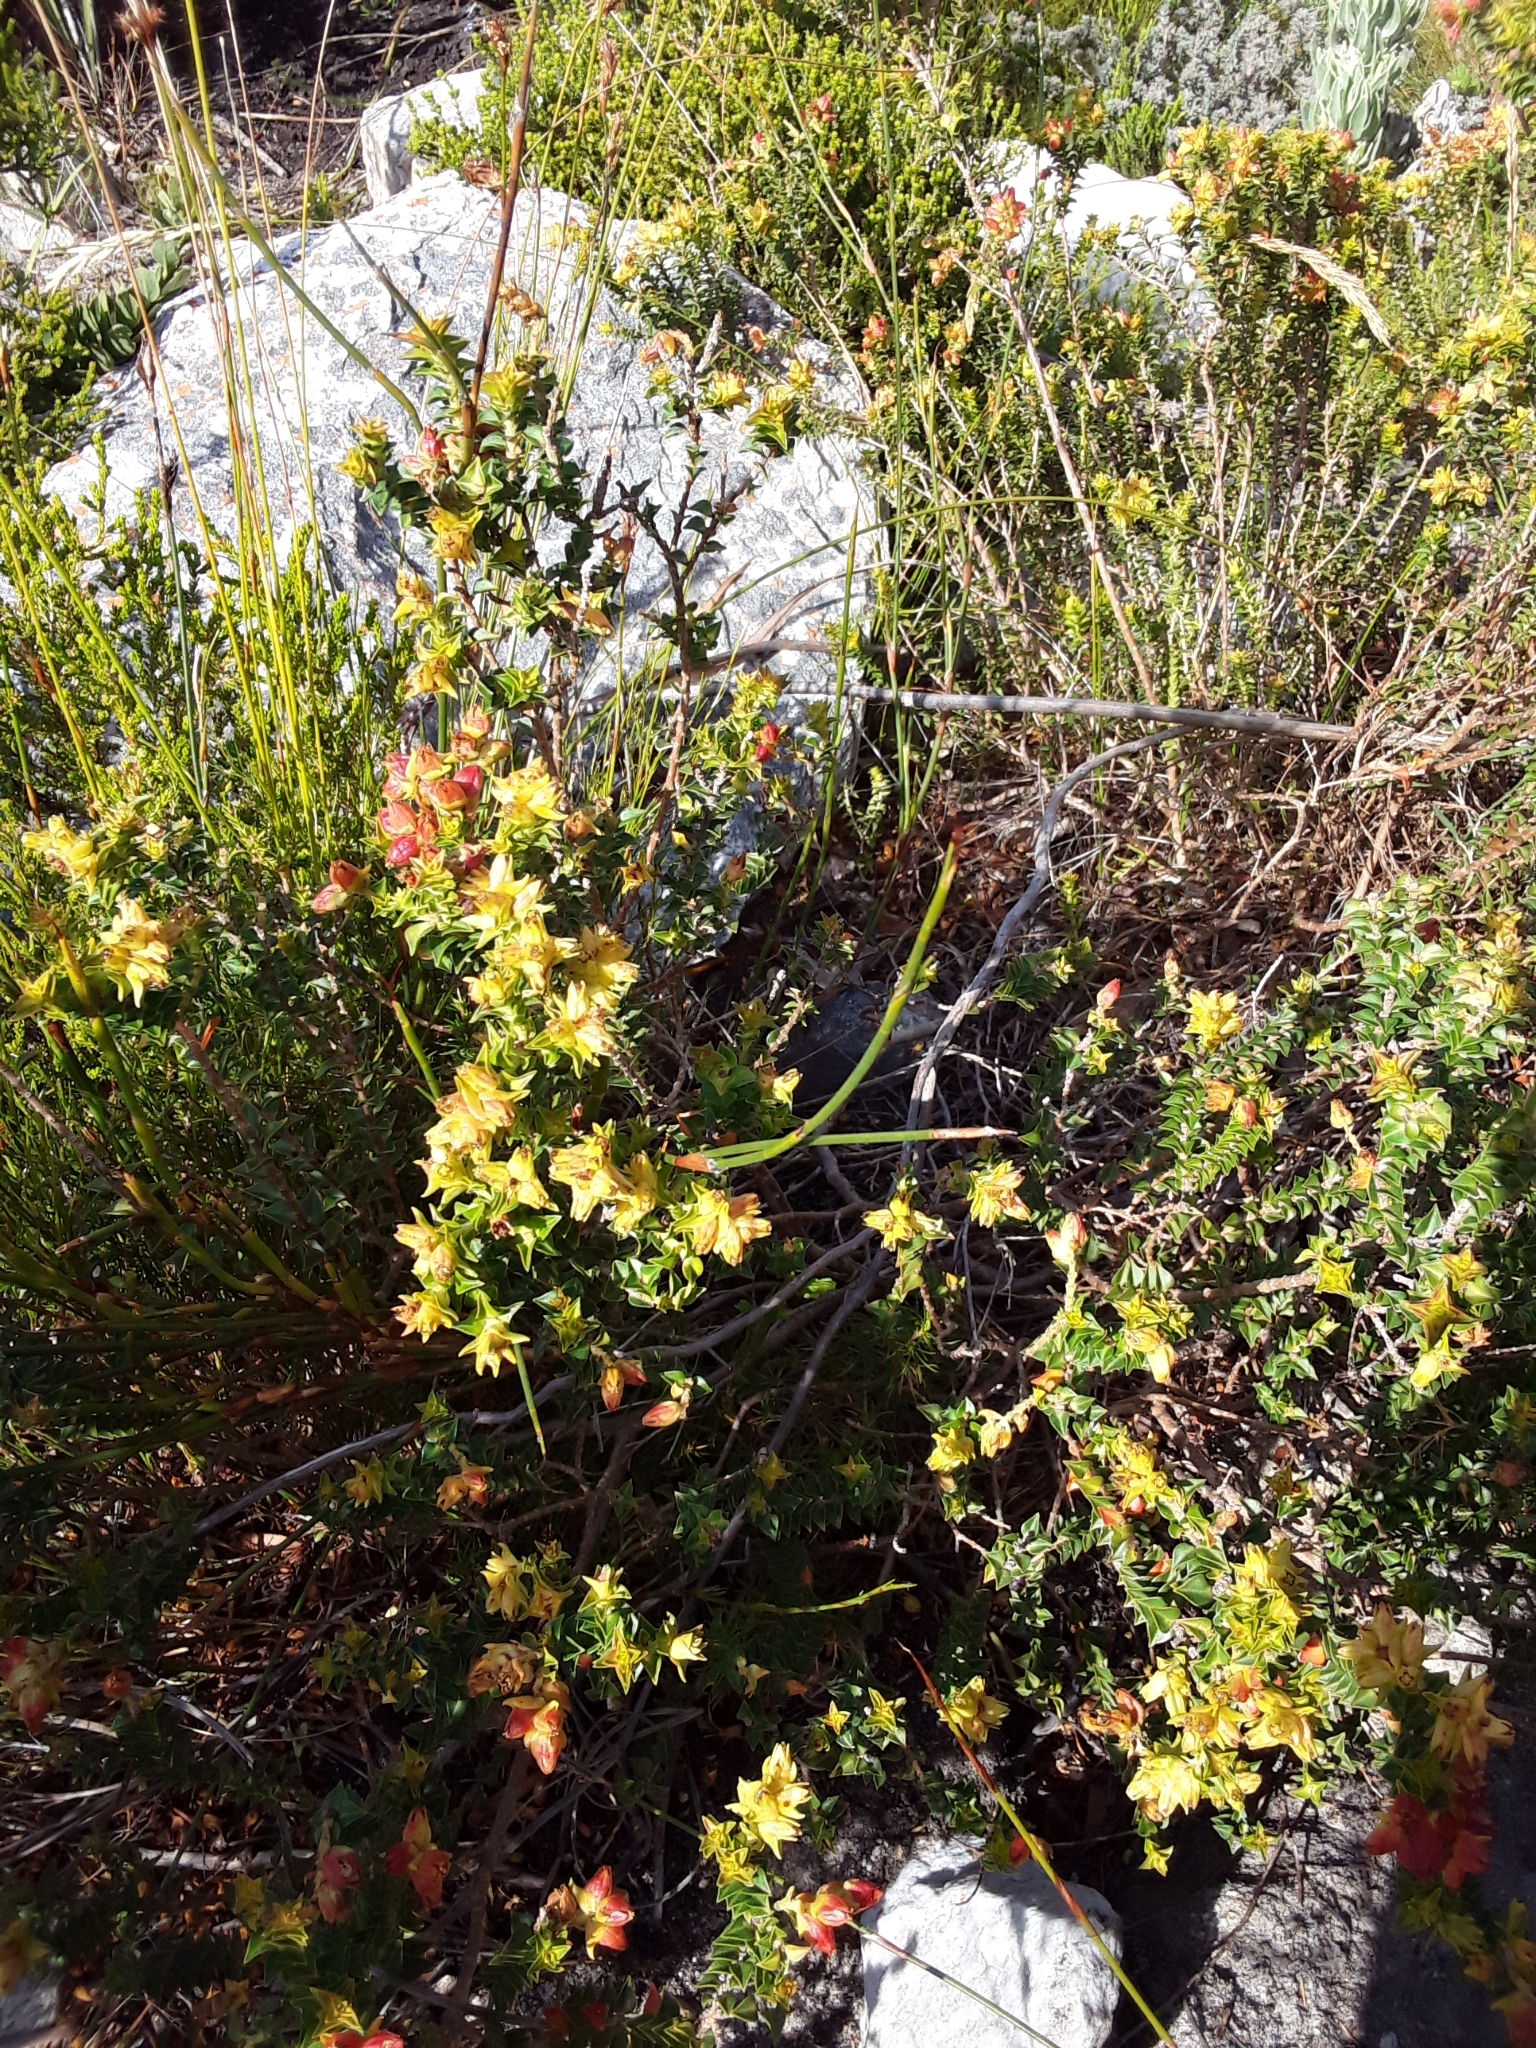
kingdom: Plantae
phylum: Tracheophyta
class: Magnoliopsida
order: Myrtales
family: Penaeaceae
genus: Penaea
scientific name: Penaea mucronata
